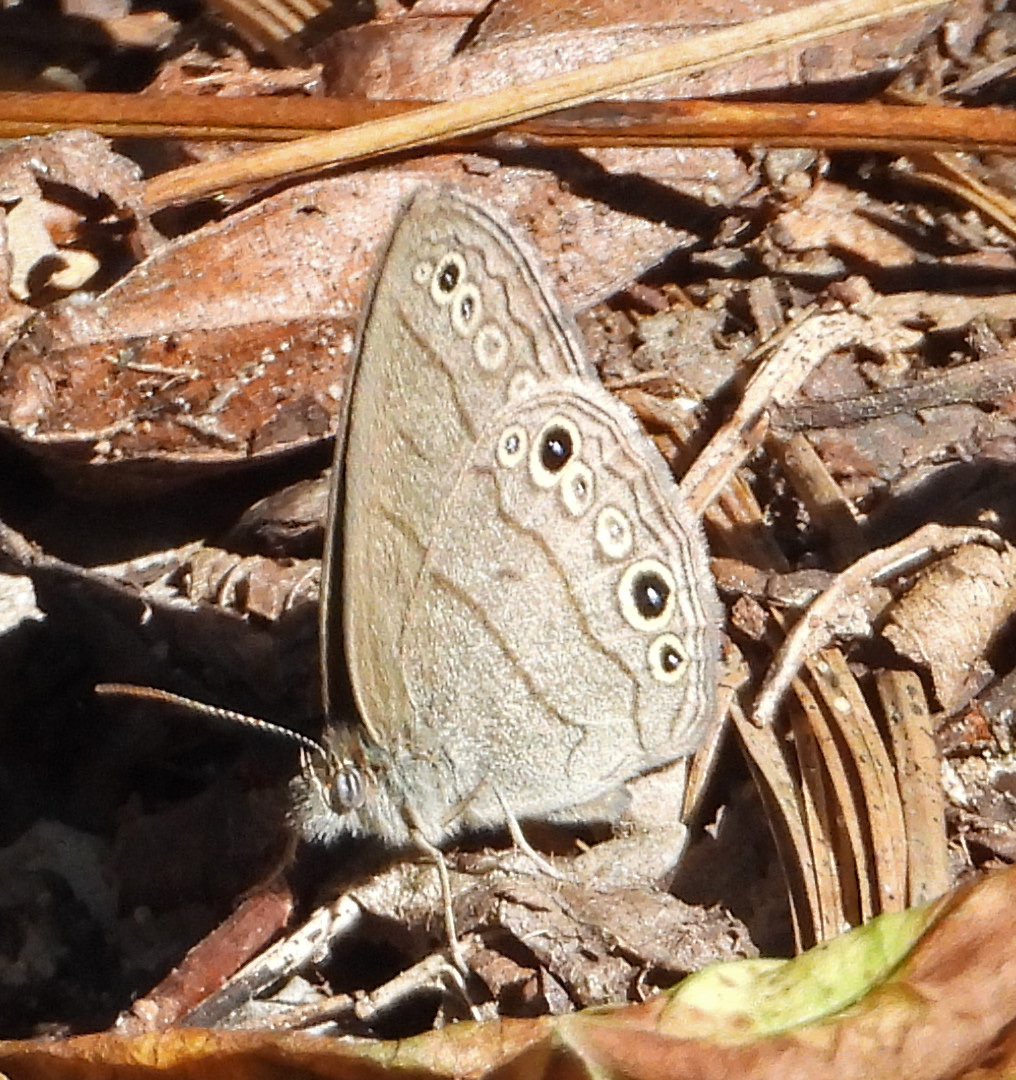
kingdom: Animalia
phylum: Arthropoda
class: Insecta
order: Lepidoptera
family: Nymphalidae
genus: Hermeuptychia
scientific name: Hermeuptychia hermes
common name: Hermes satyr
